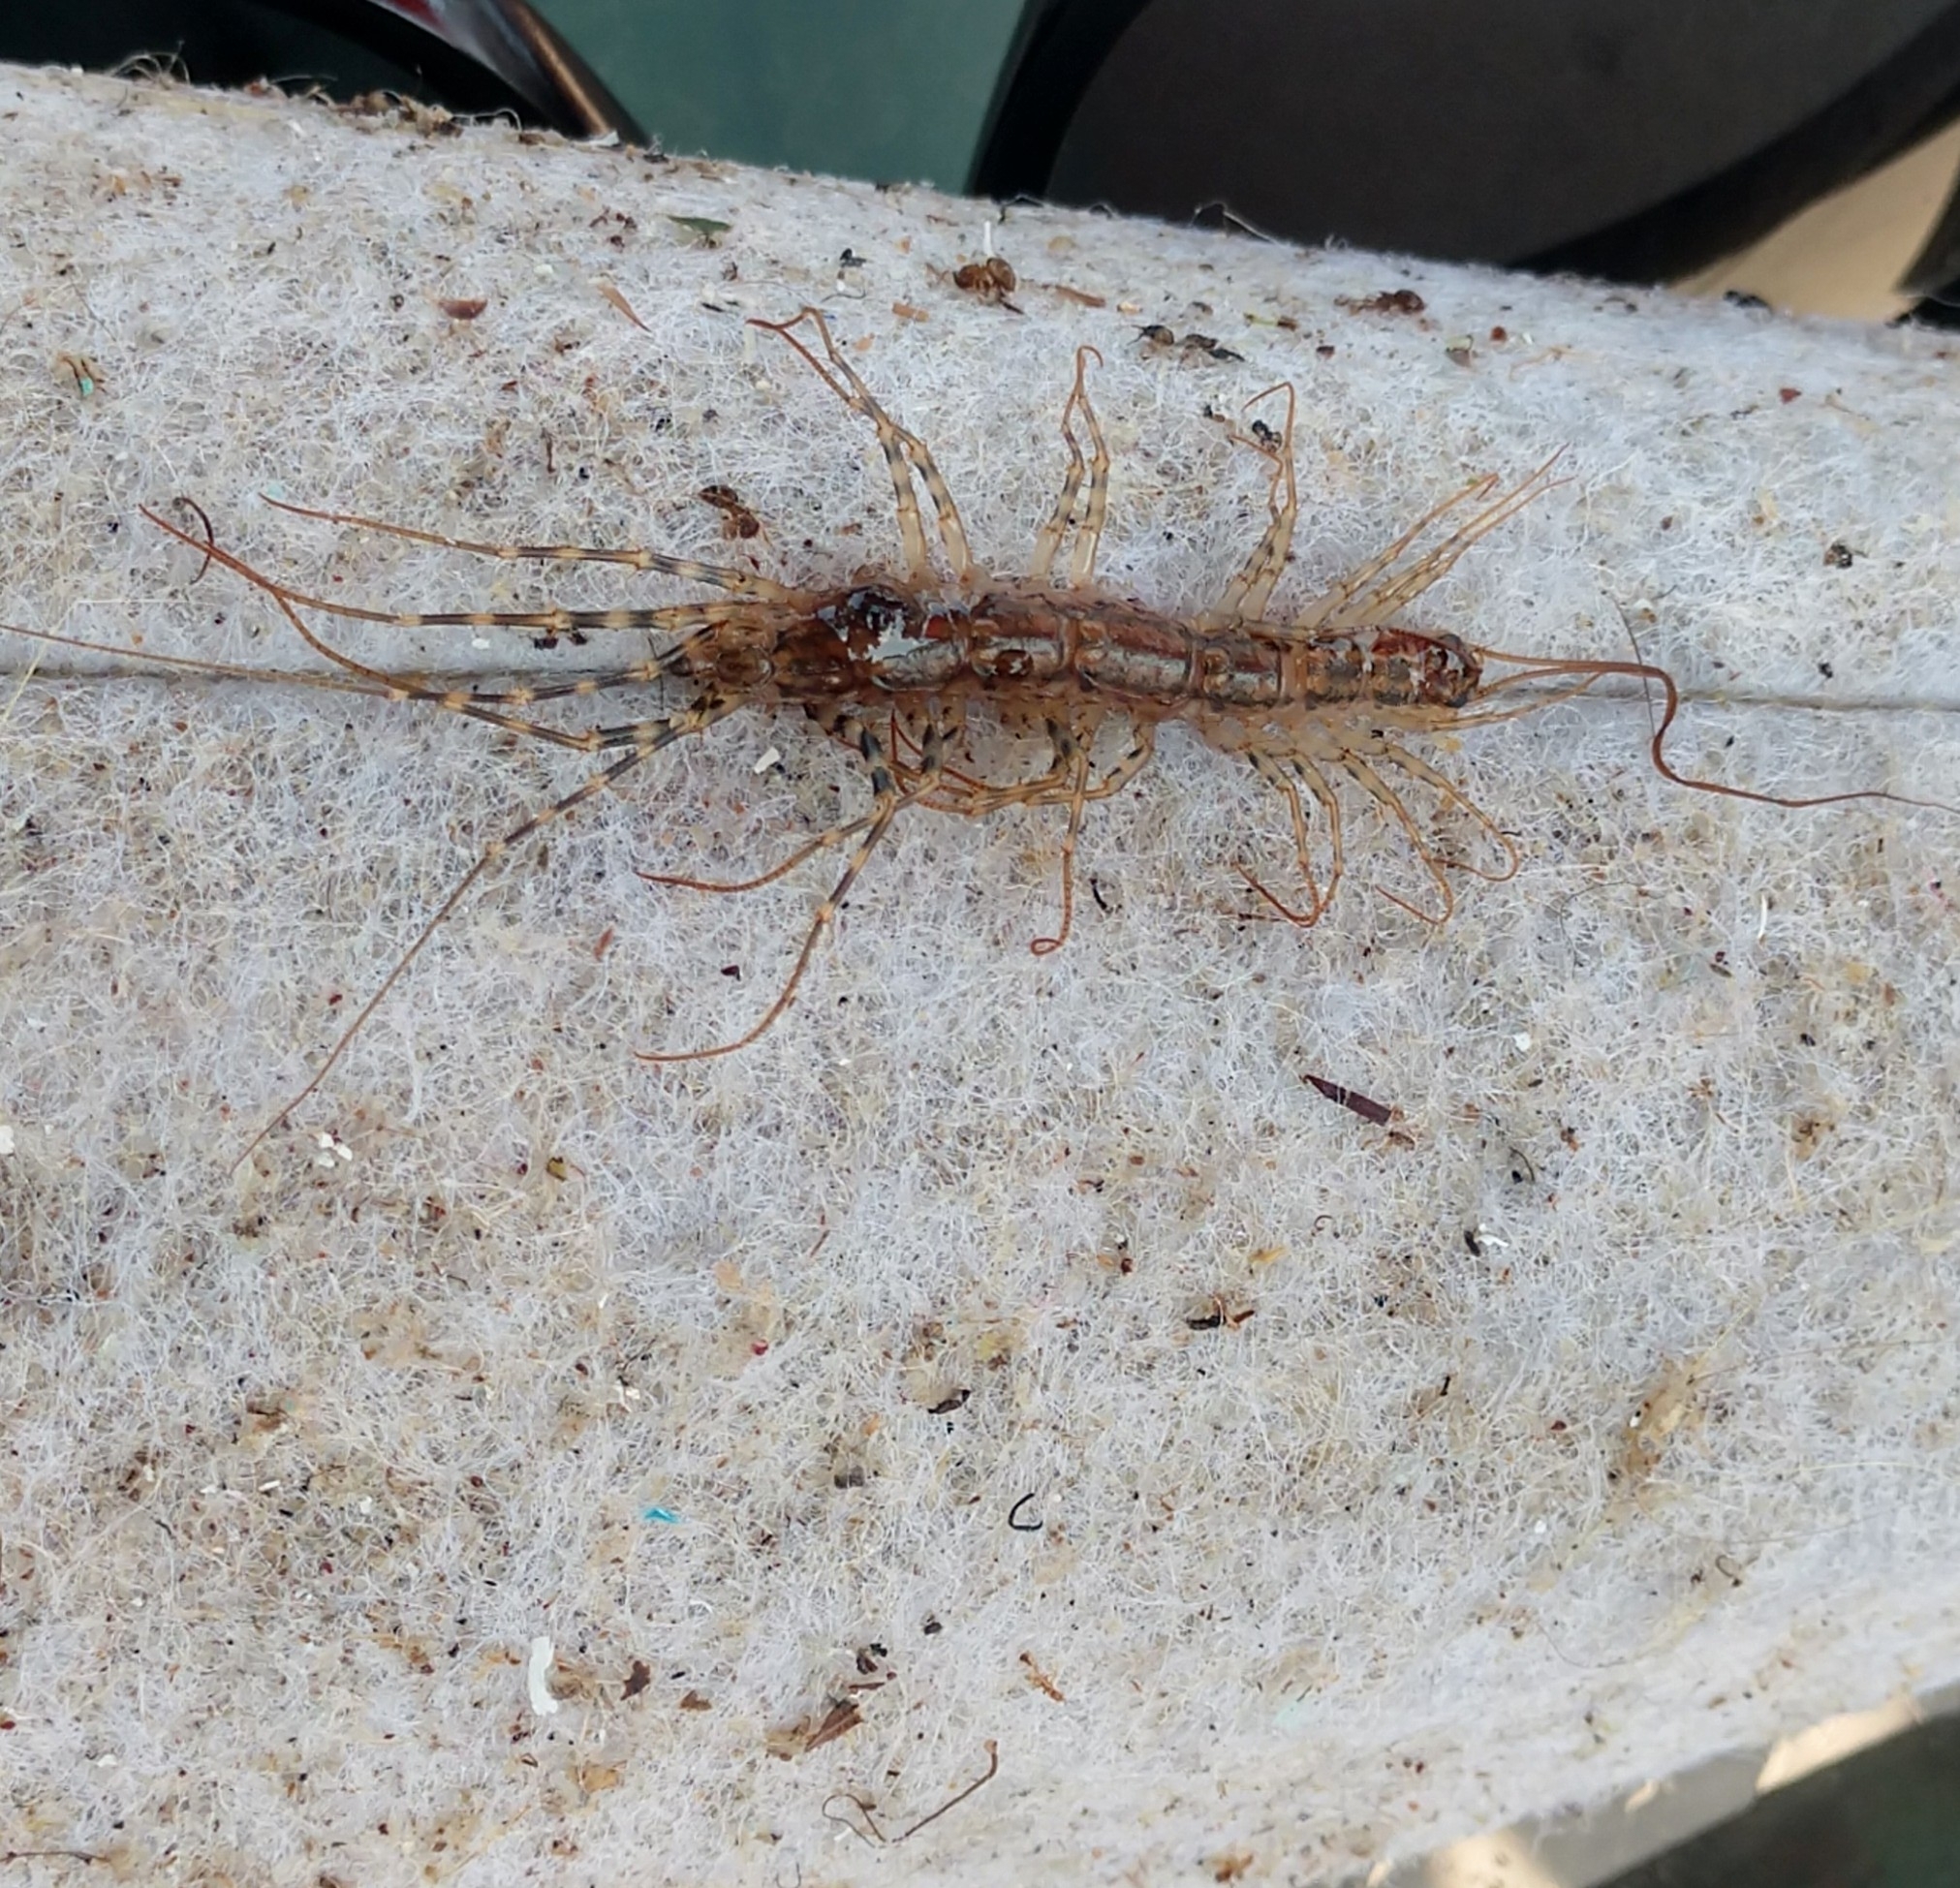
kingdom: Animalia
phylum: Arthropoda
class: Chilopoda
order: Scutigeromorpha
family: Scutigeridae
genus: Thereuonema
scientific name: Thereuonema tuberculata
